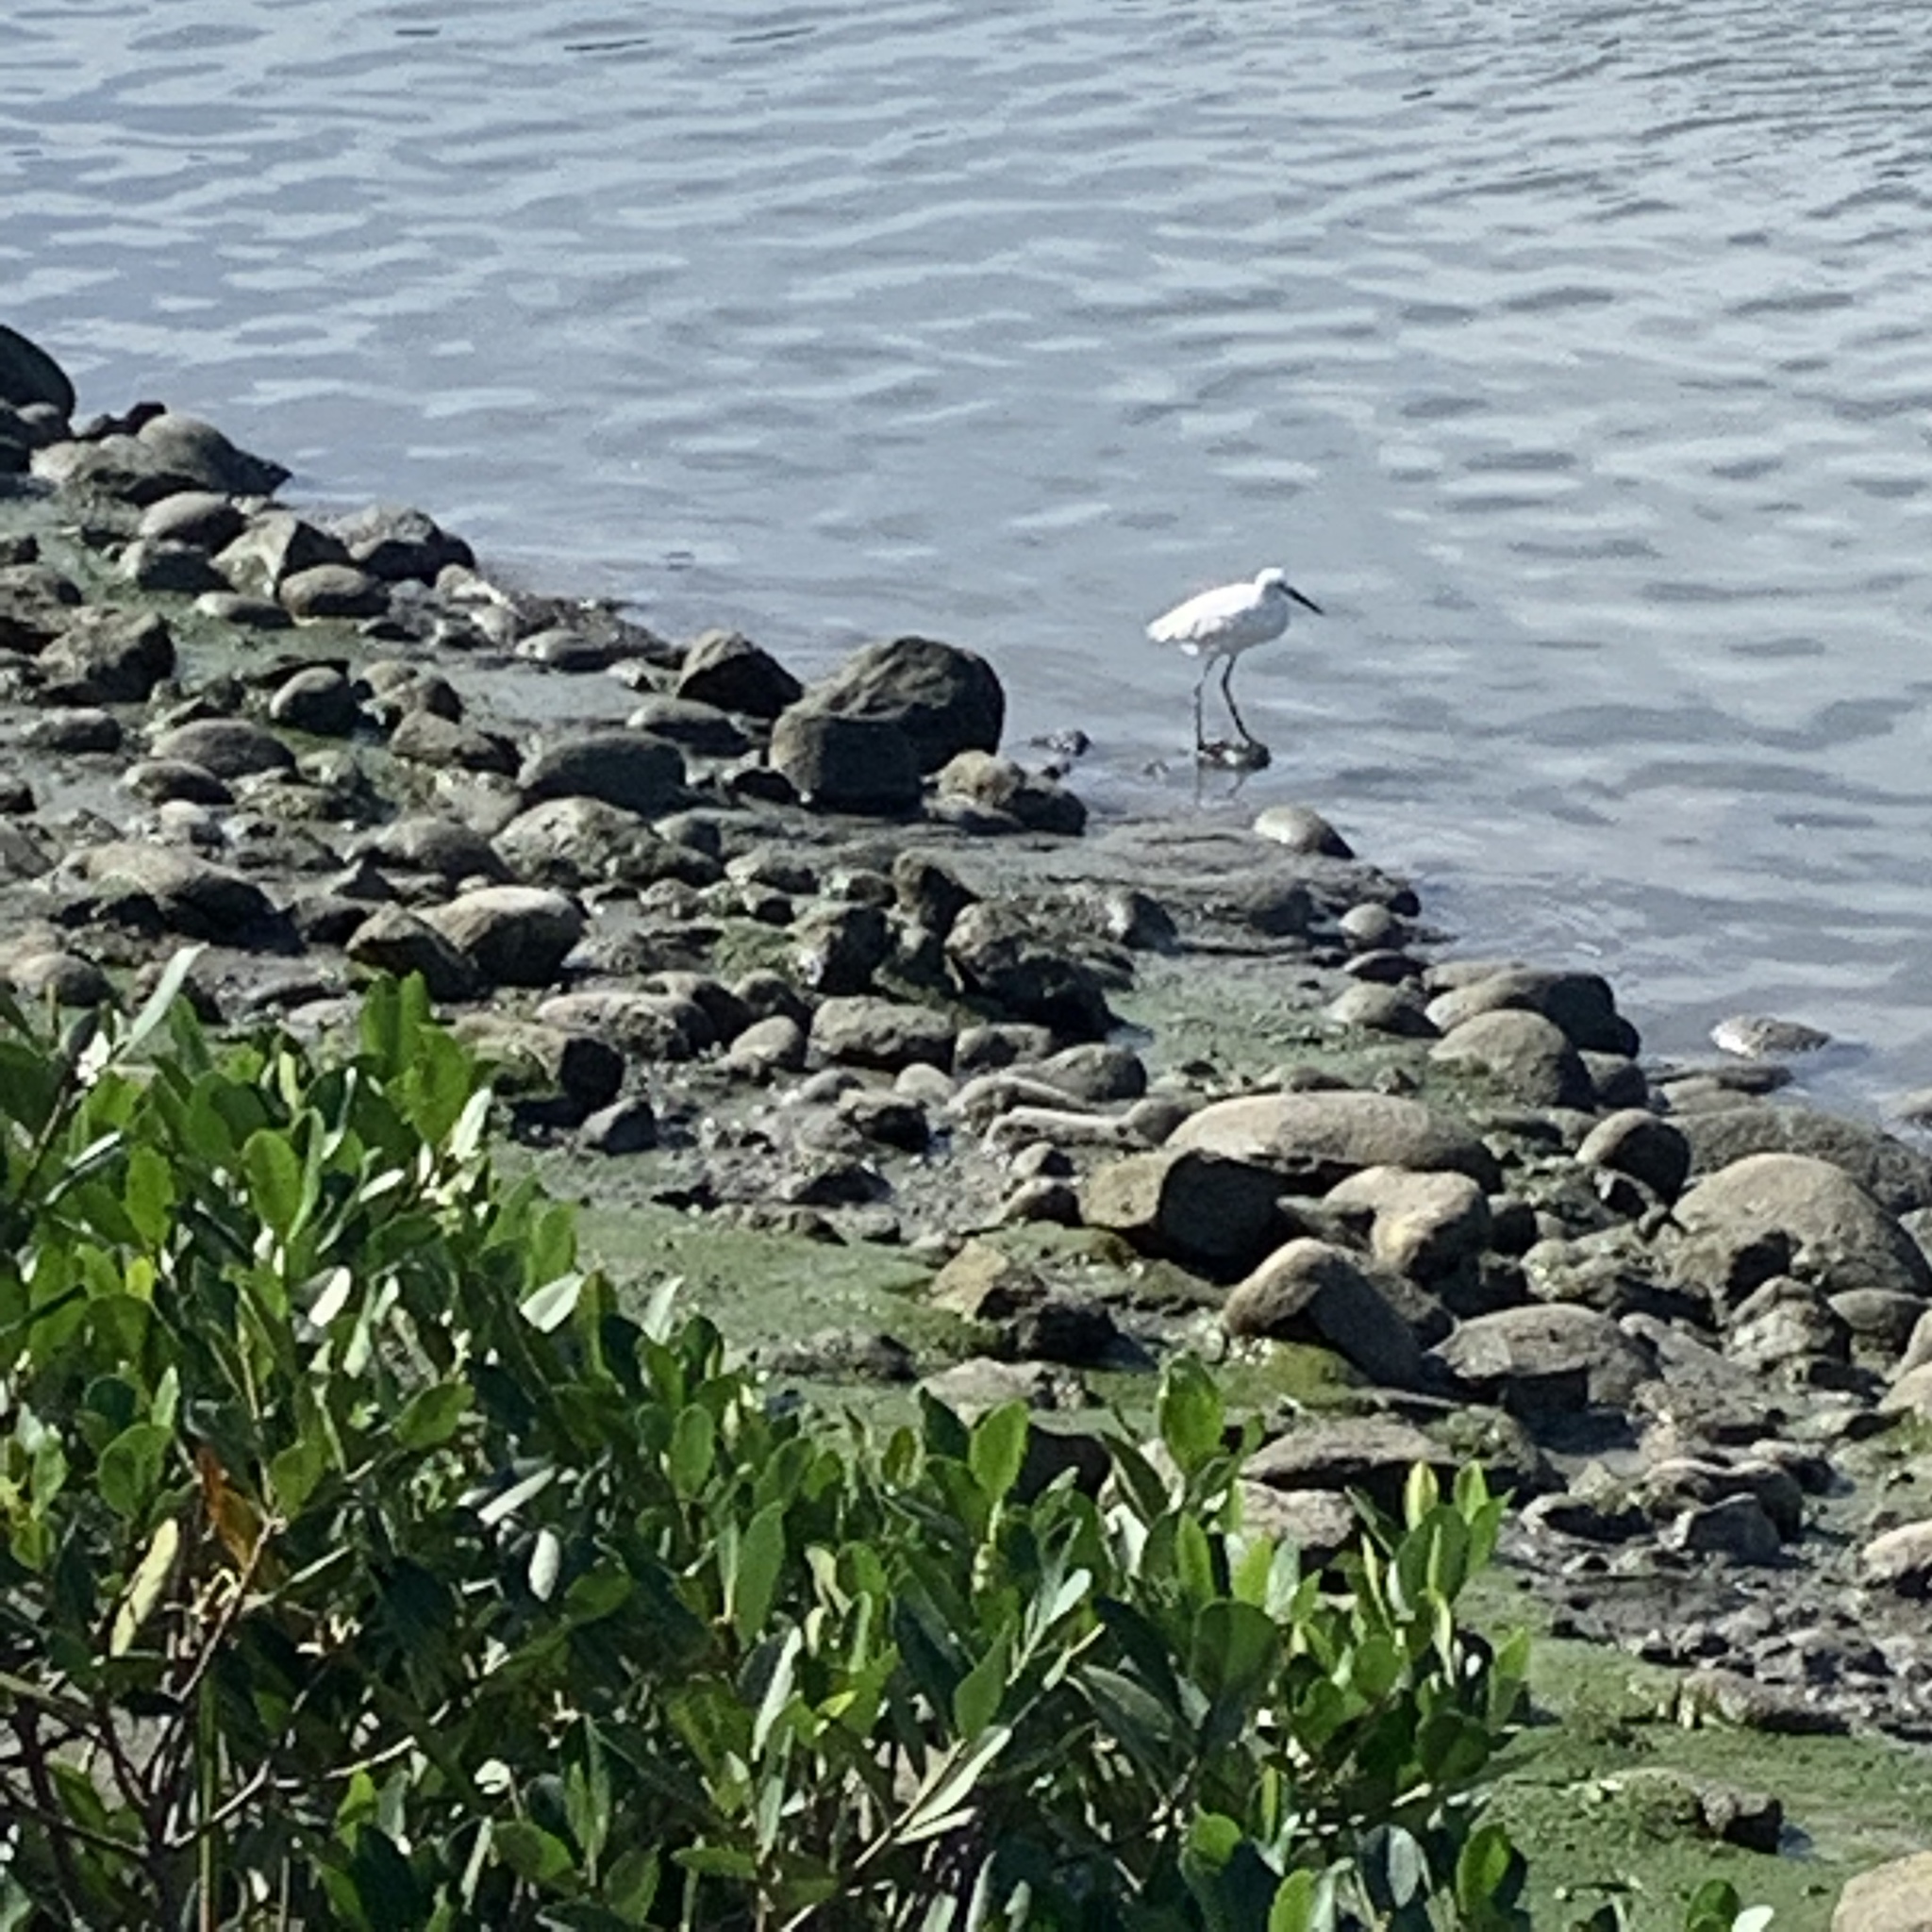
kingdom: Animalia
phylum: Chordata
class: Aves
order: Pelecaniformes
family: Ardeidae
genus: Egretta
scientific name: Egretta garzetta
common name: Little egret
